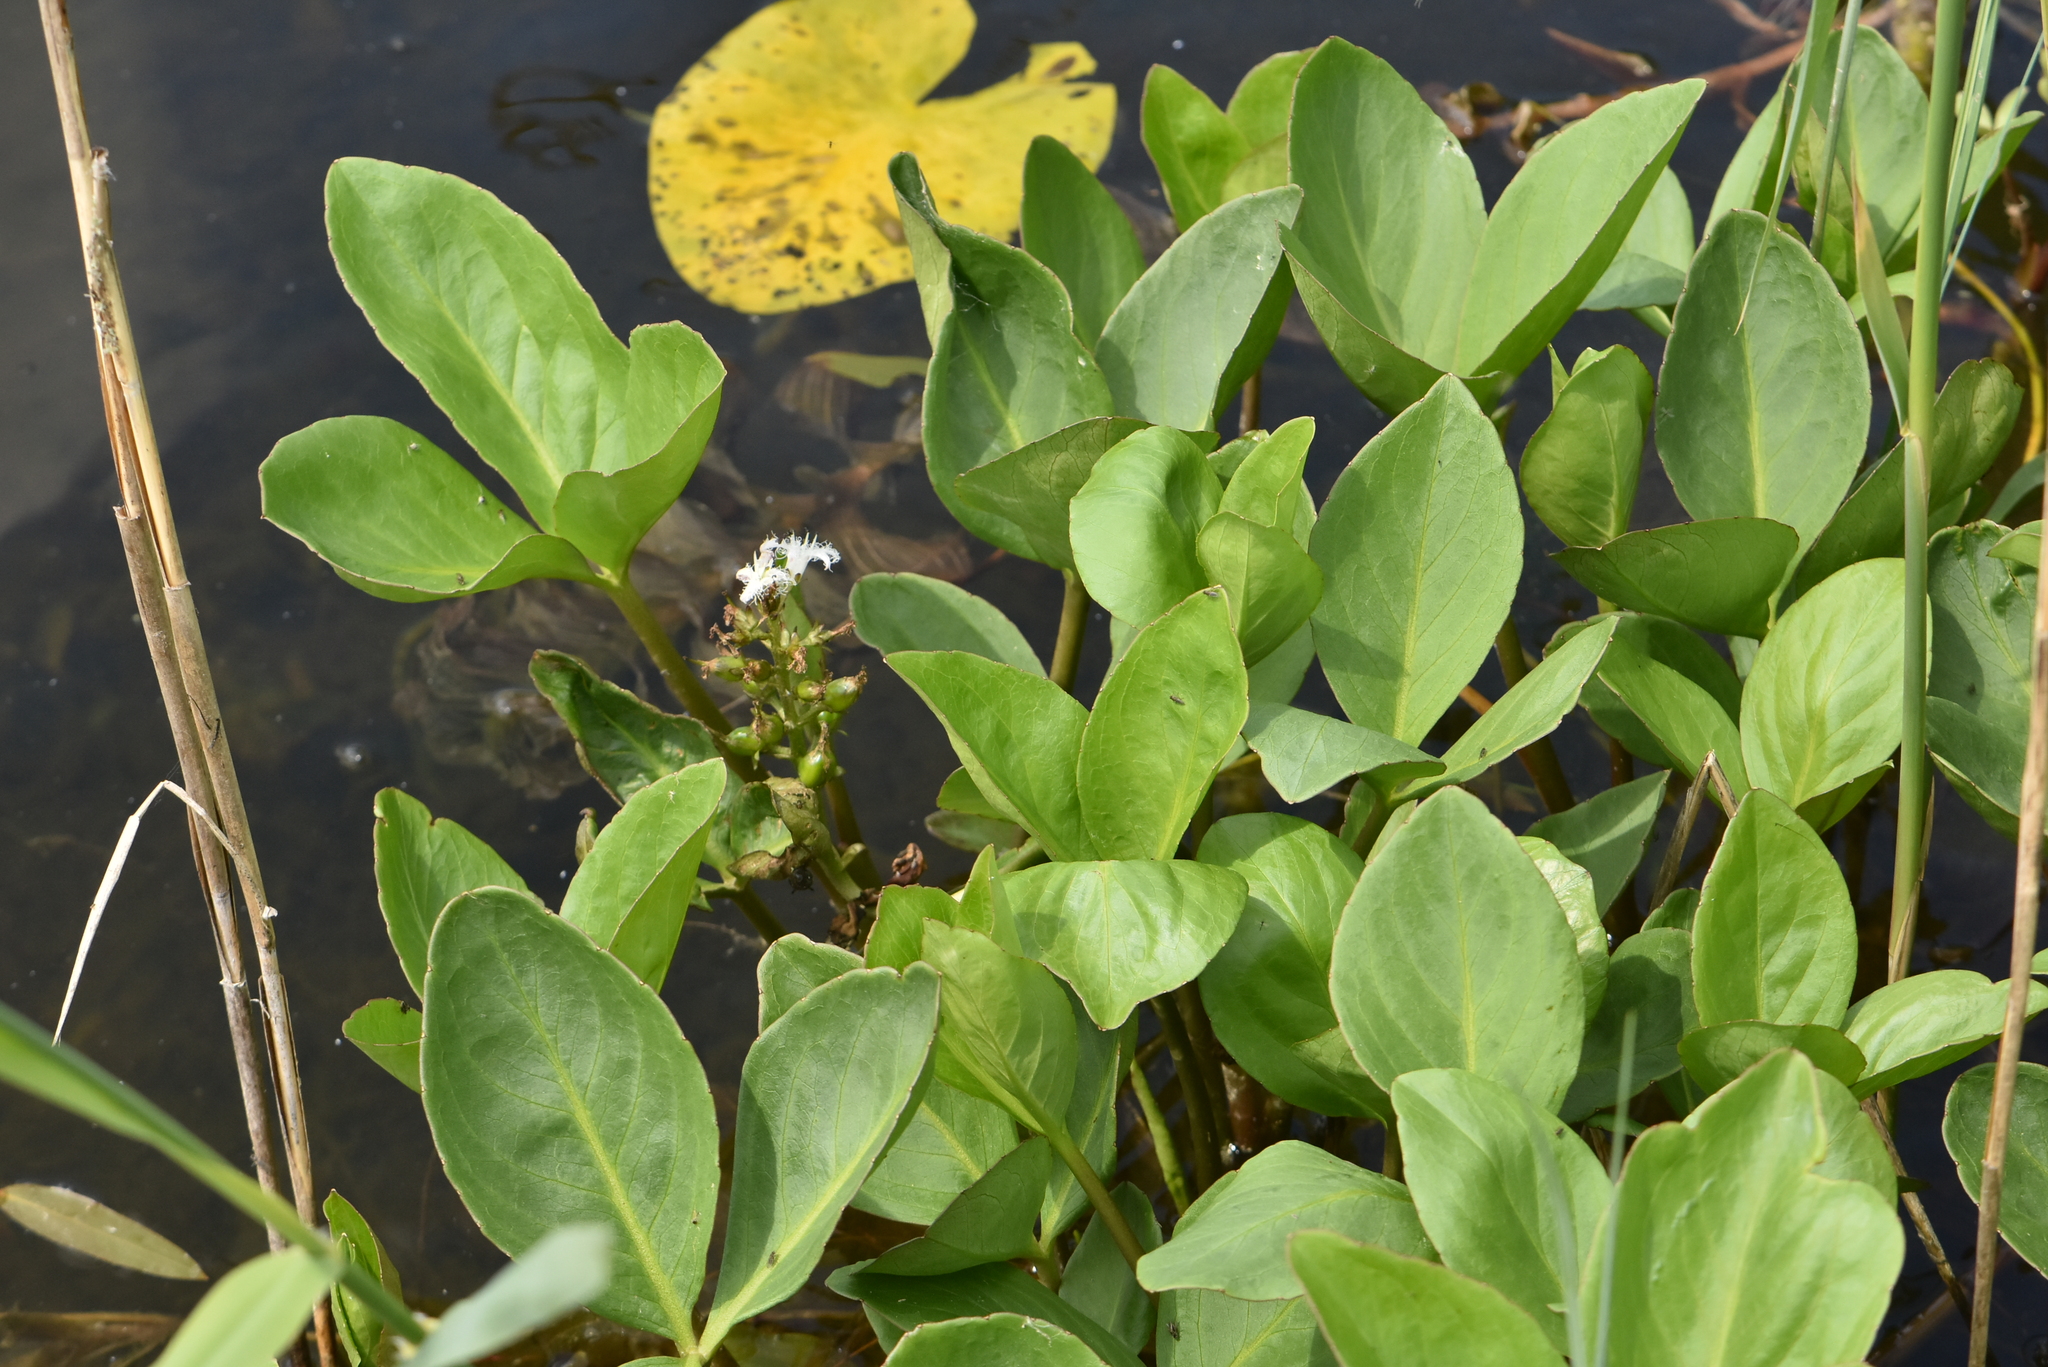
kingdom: Plantae
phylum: Tracheophyta
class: Magnoliopsida
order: Asterales
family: Menyanthaceae
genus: Menyanthes
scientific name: Menyanthes trifoliata
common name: Bogbean
